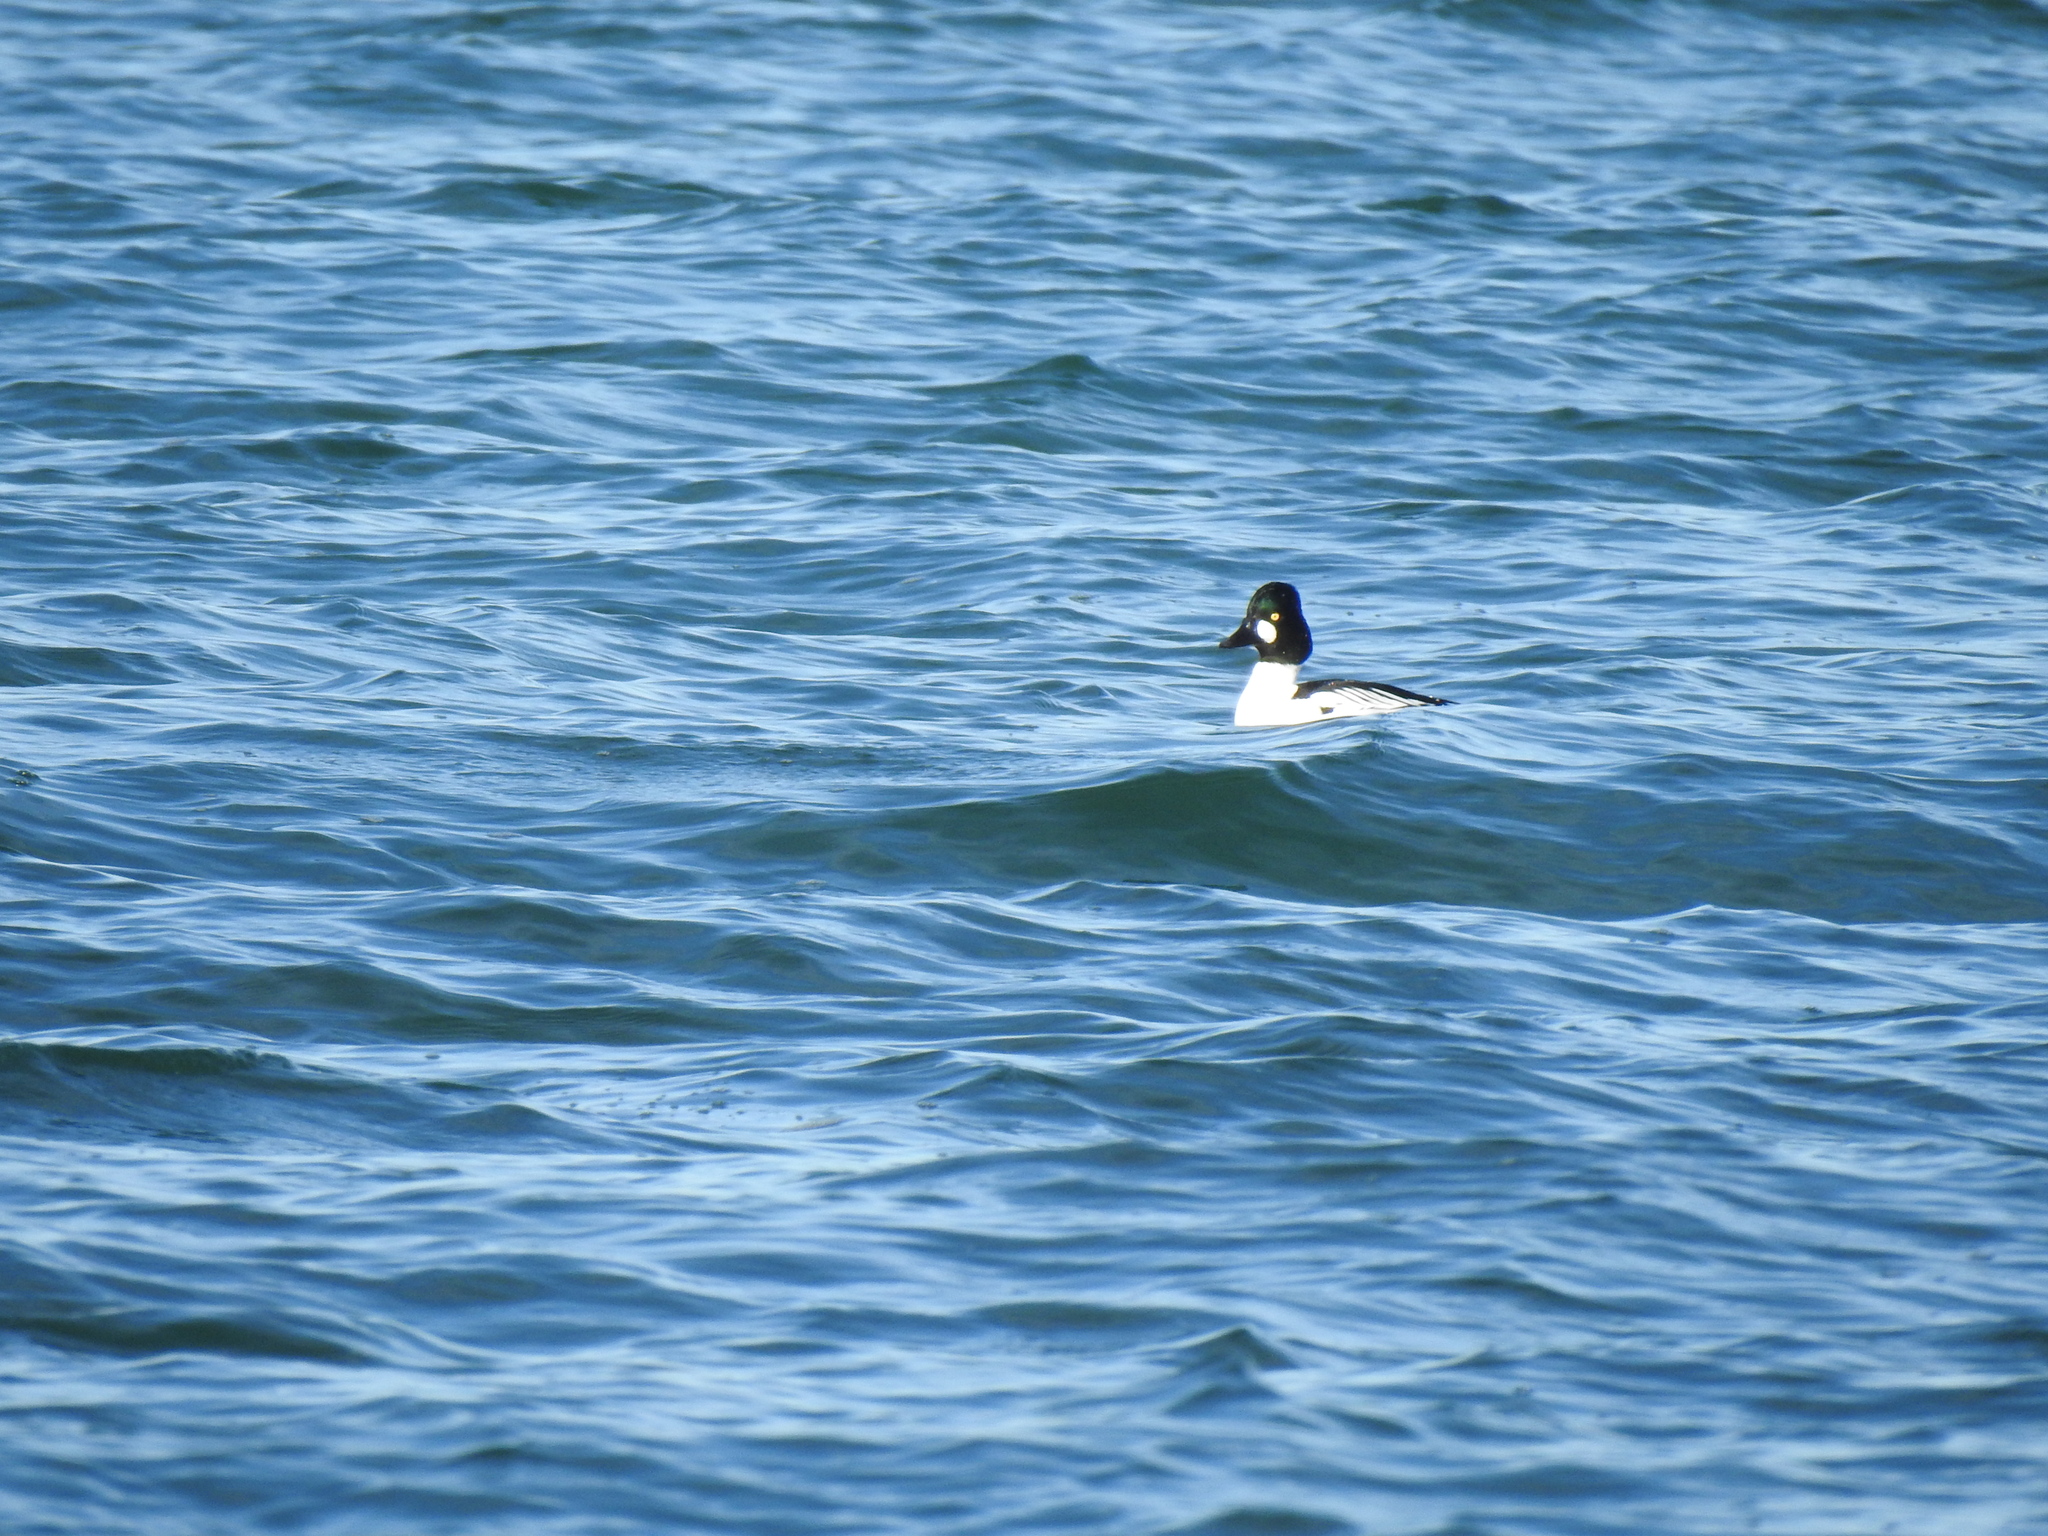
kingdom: Animalia
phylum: Chordata
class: Aves
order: Anseriformes
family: Anatidae
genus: Bucephala
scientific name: Bucephala clangula
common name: Common goldeneye
